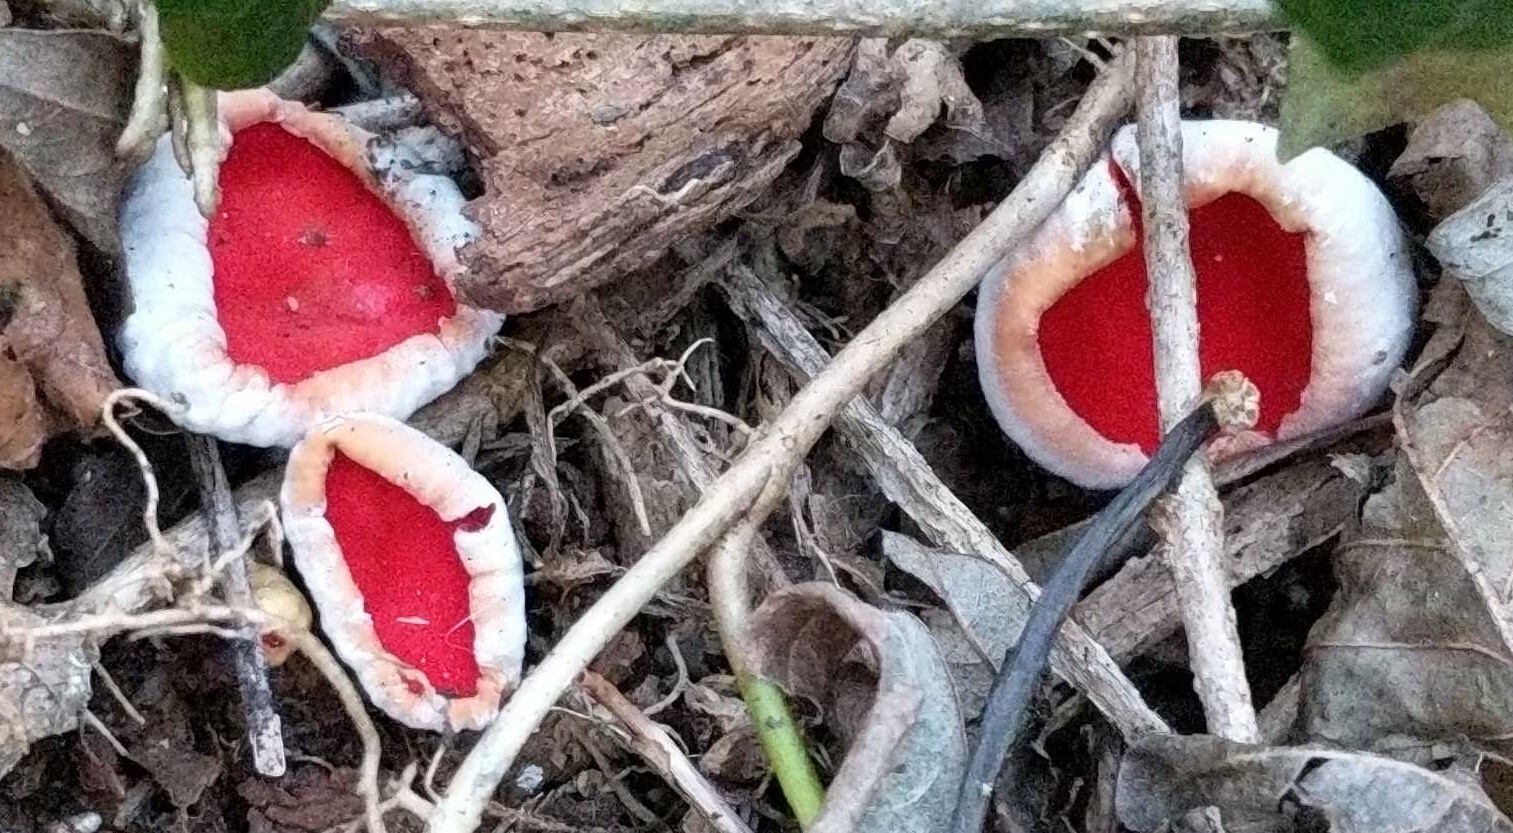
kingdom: Fungi
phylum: Ascomycota
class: Pezizomycetes
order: Pezizales
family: Sarcoscyphaceae
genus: Sarcoscypha
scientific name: Sarcoscypha
